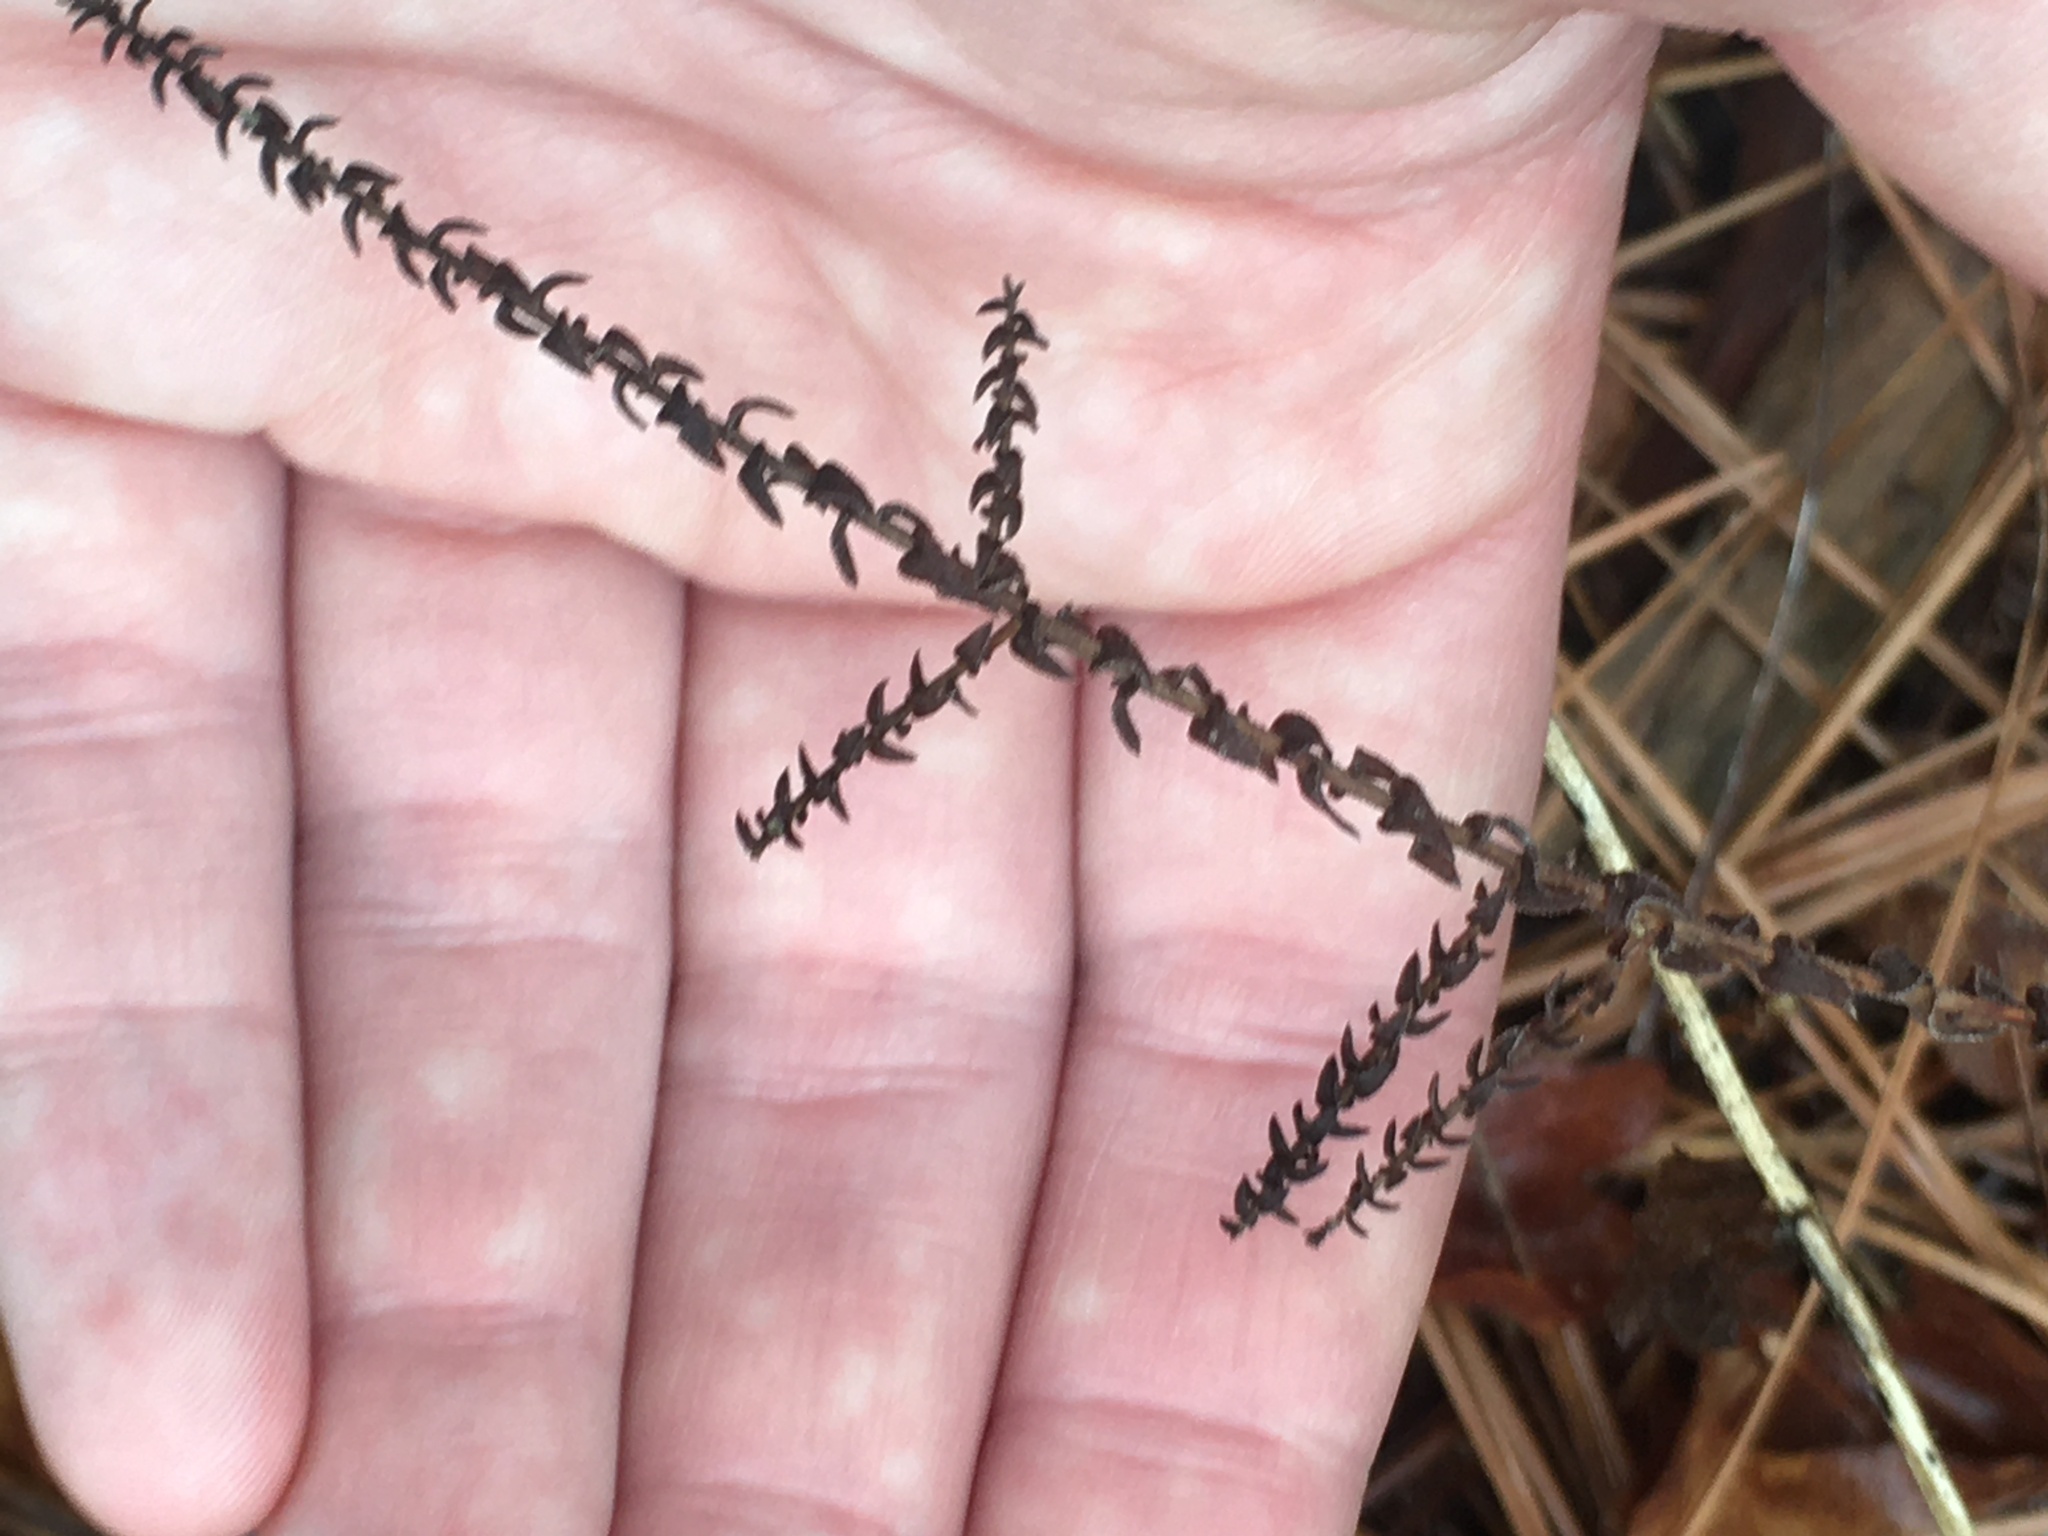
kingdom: Plantae
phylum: Tracheophyta
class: Magnoliopsida
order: Asterales
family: Asteraceae
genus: Symphyotrichum
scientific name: Symphyotrichum walteri
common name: Walter's aster
